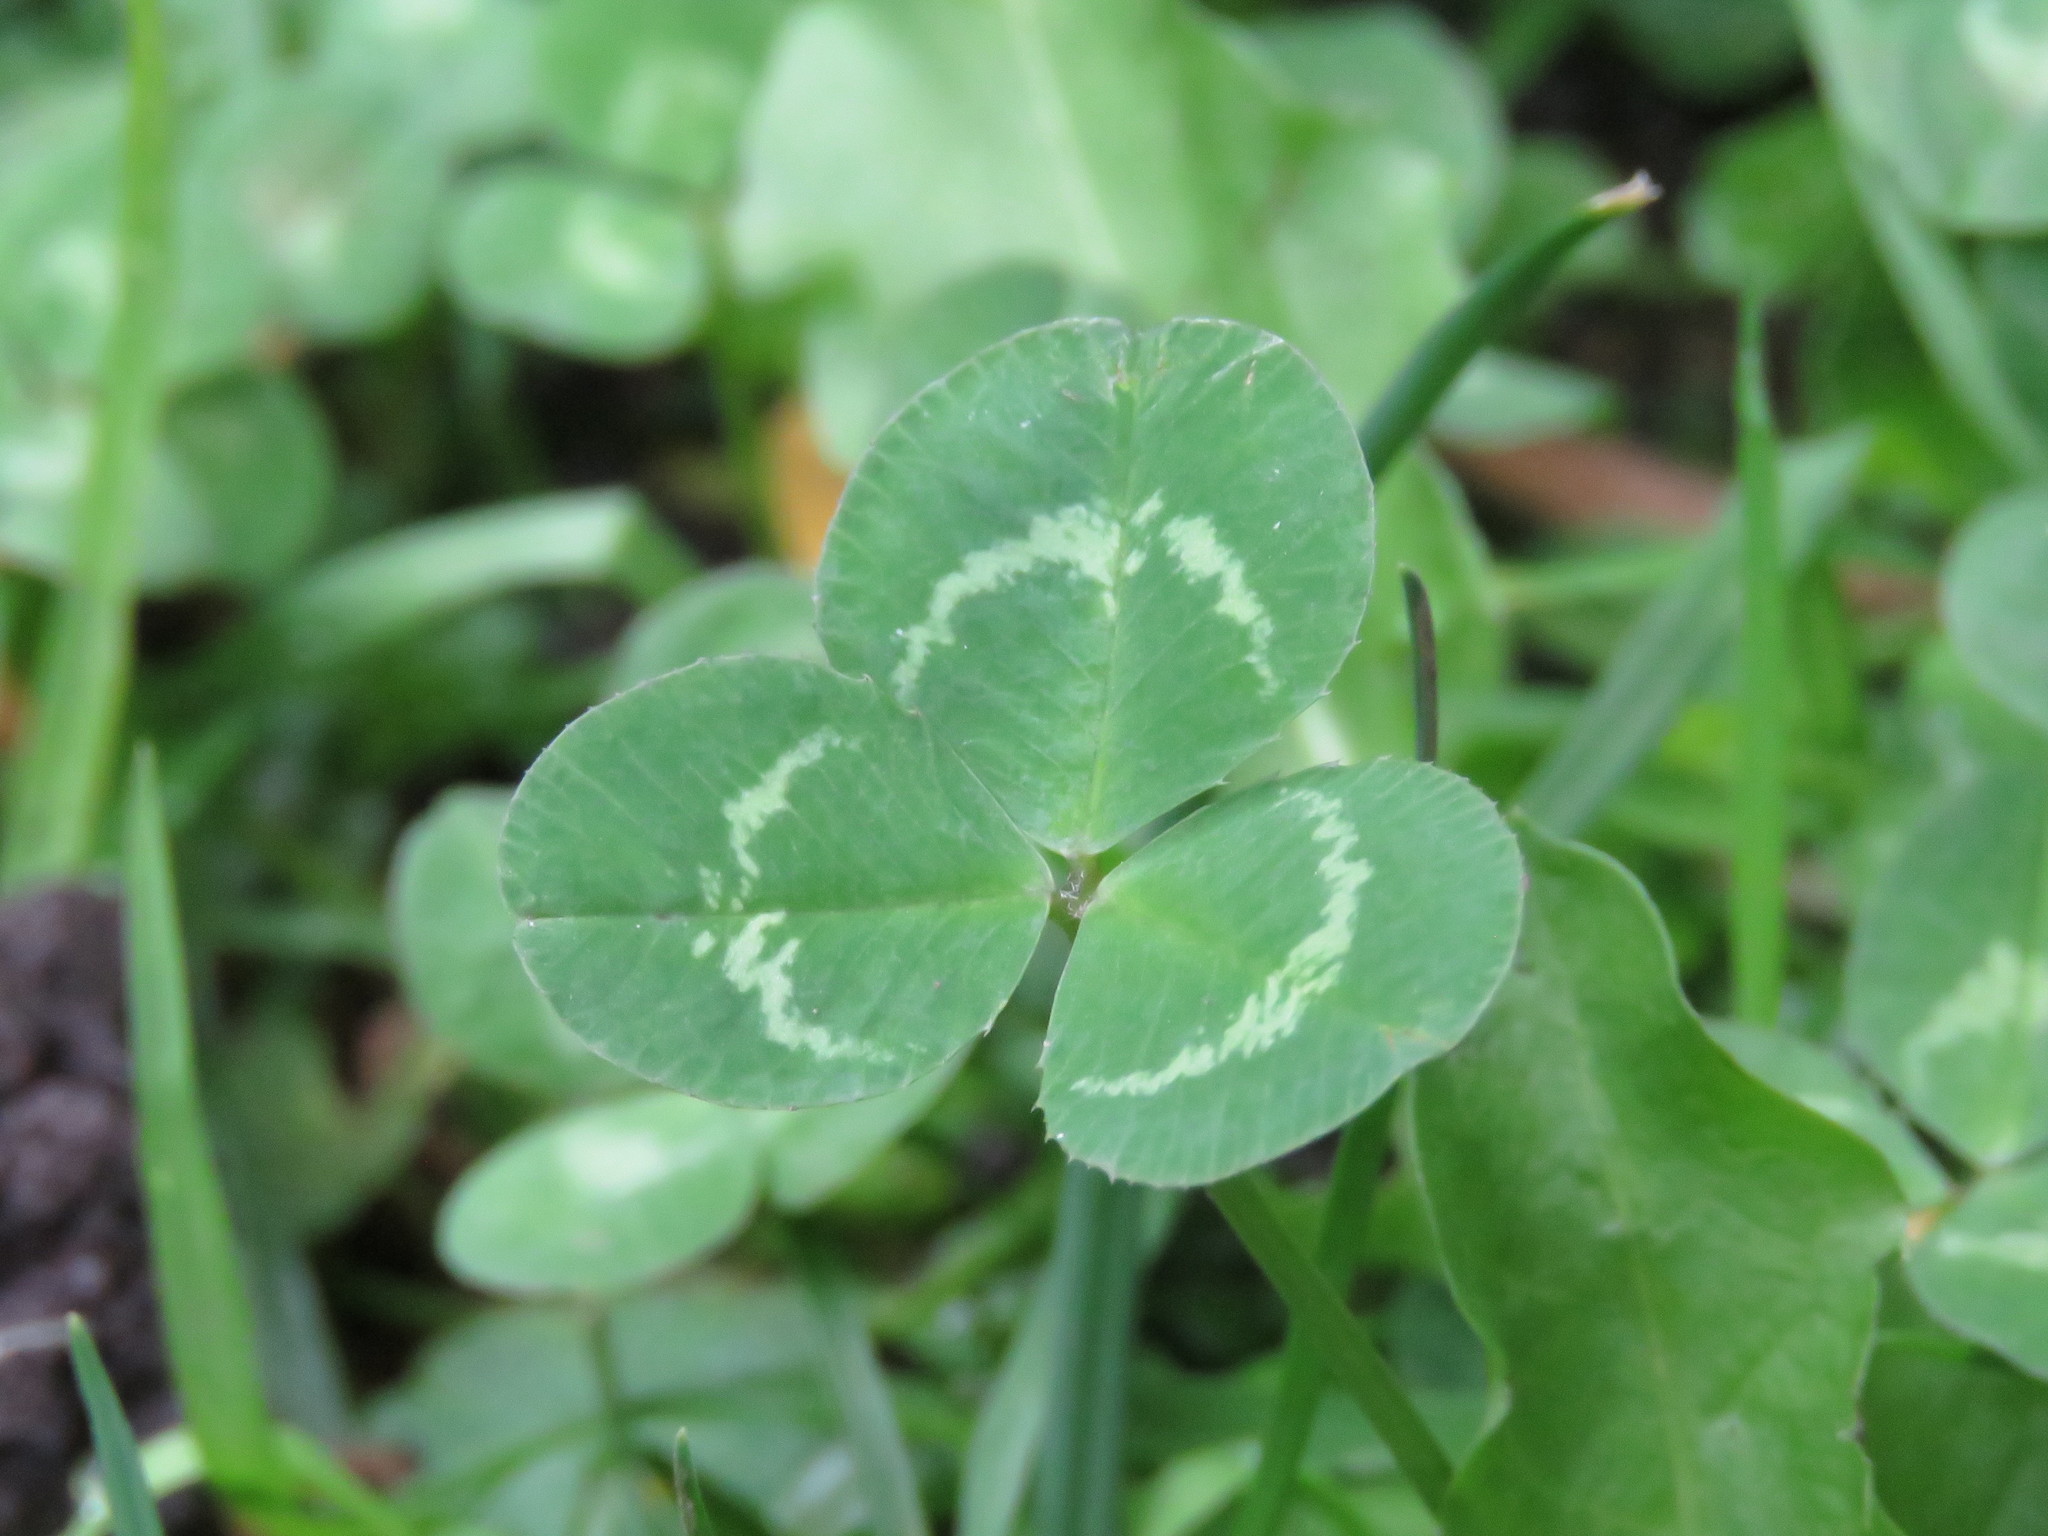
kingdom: Plantae
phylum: Tracheophyta
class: Magnoliopsida
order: Fabales
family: Fabaceae
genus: Trifolium
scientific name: Trifolium repens
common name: White clover
